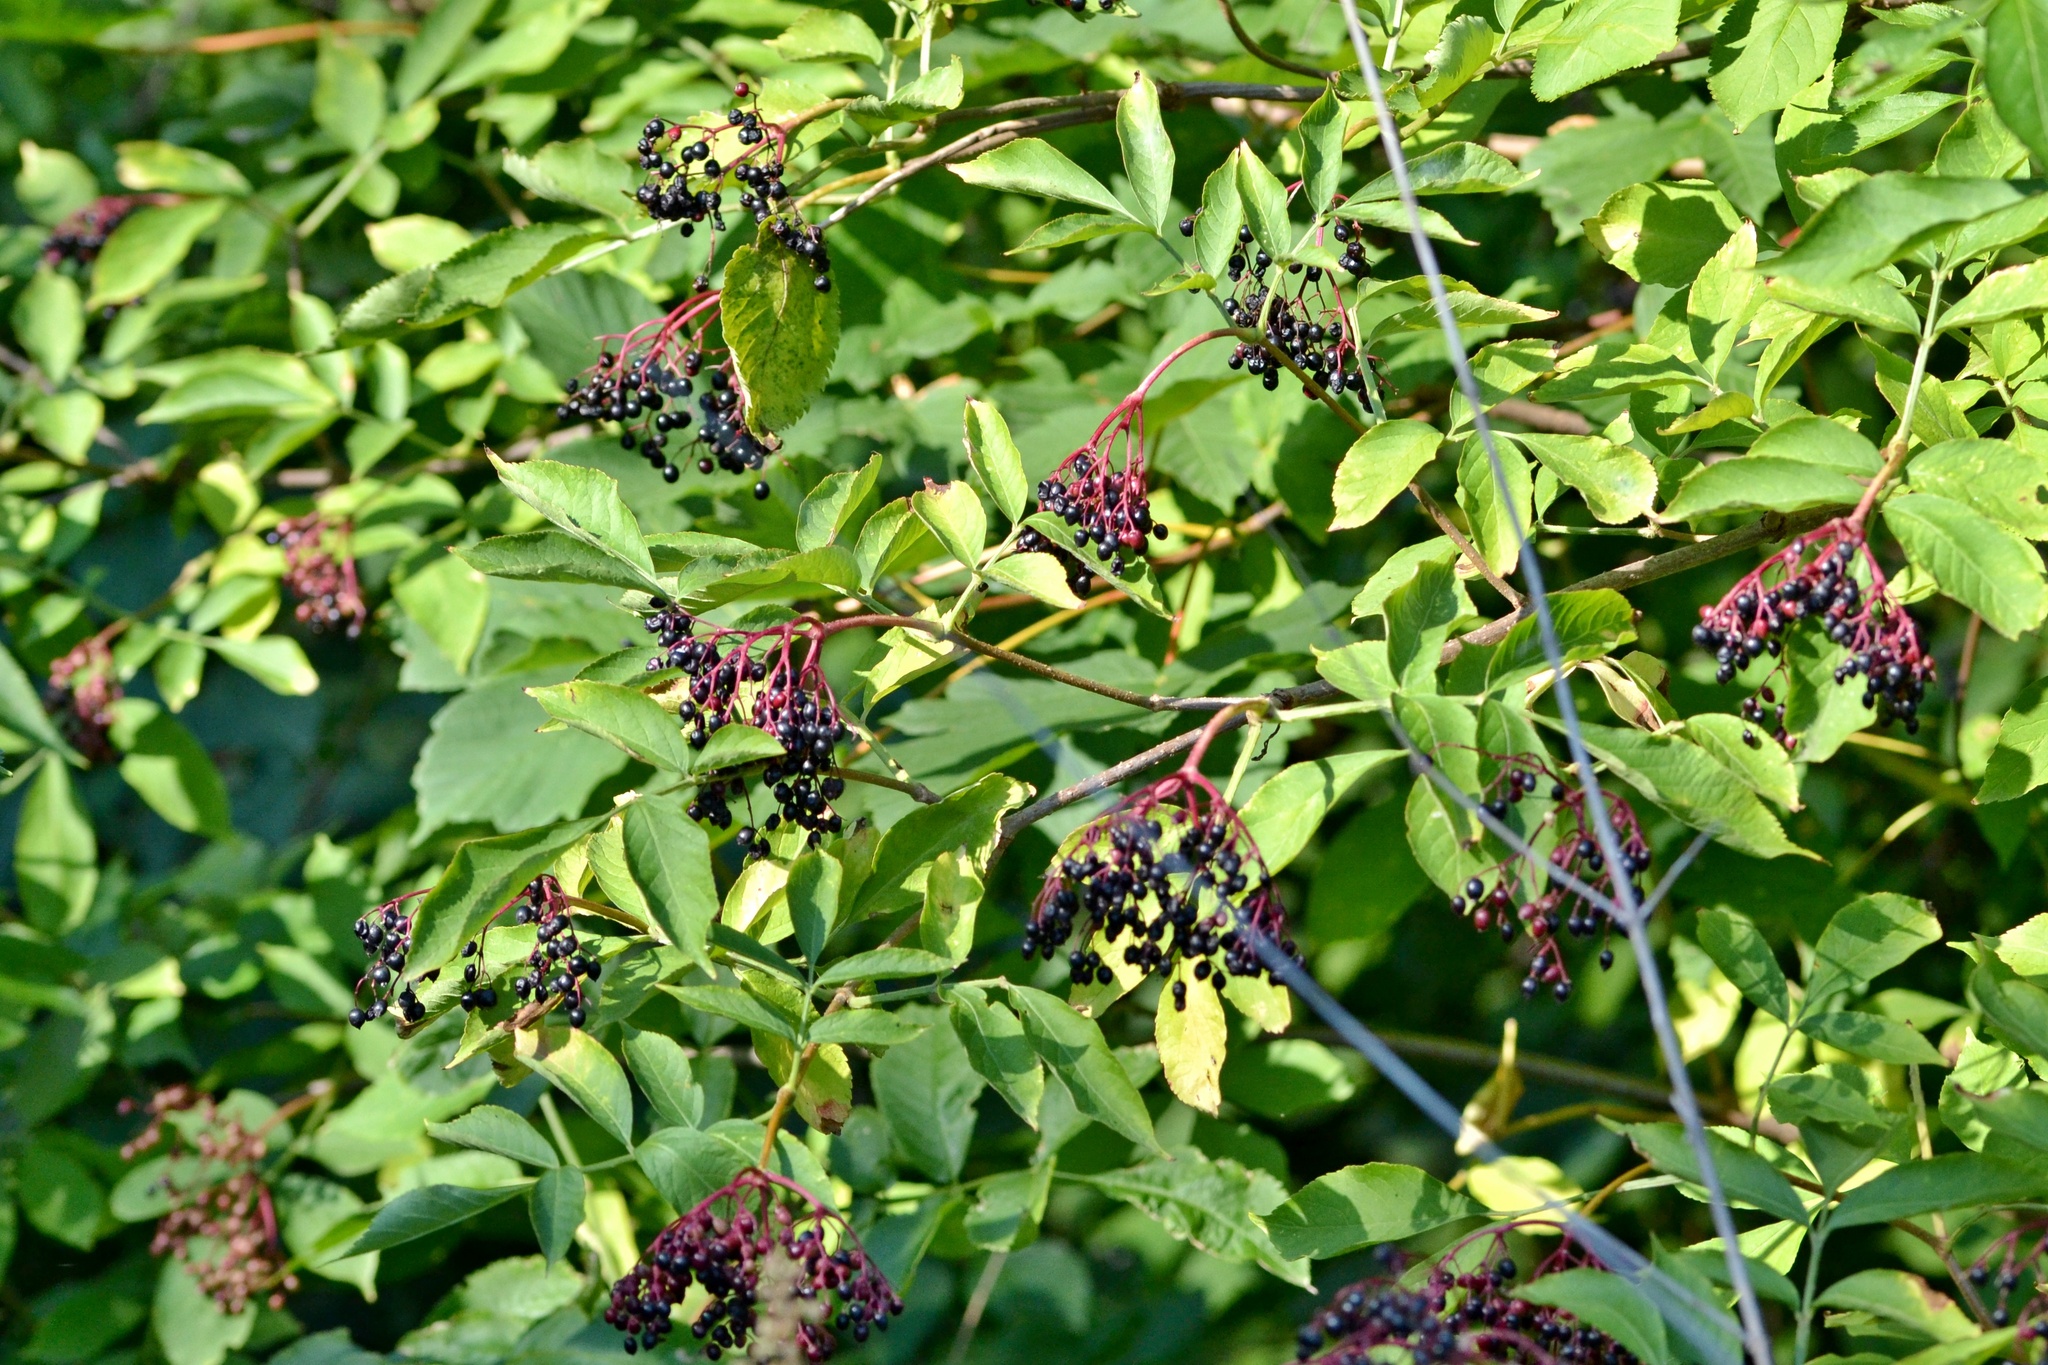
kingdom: Plantae
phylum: Tracheophyta
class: Magnoliopsida
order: Dipsacales
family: Viburnaceae
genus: Sambucus
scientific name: Sambucus nigra
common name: Elder
